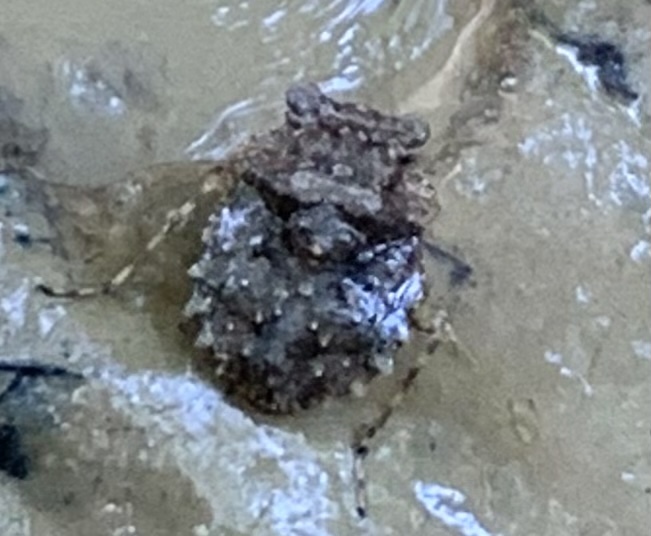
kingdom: Animalia
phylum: Arthropoda
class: Insecta
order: Hemiptera
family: Gelastocoridae
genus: Gelastocoris
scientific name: Gelastocoris oculatus
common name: Toad bug
